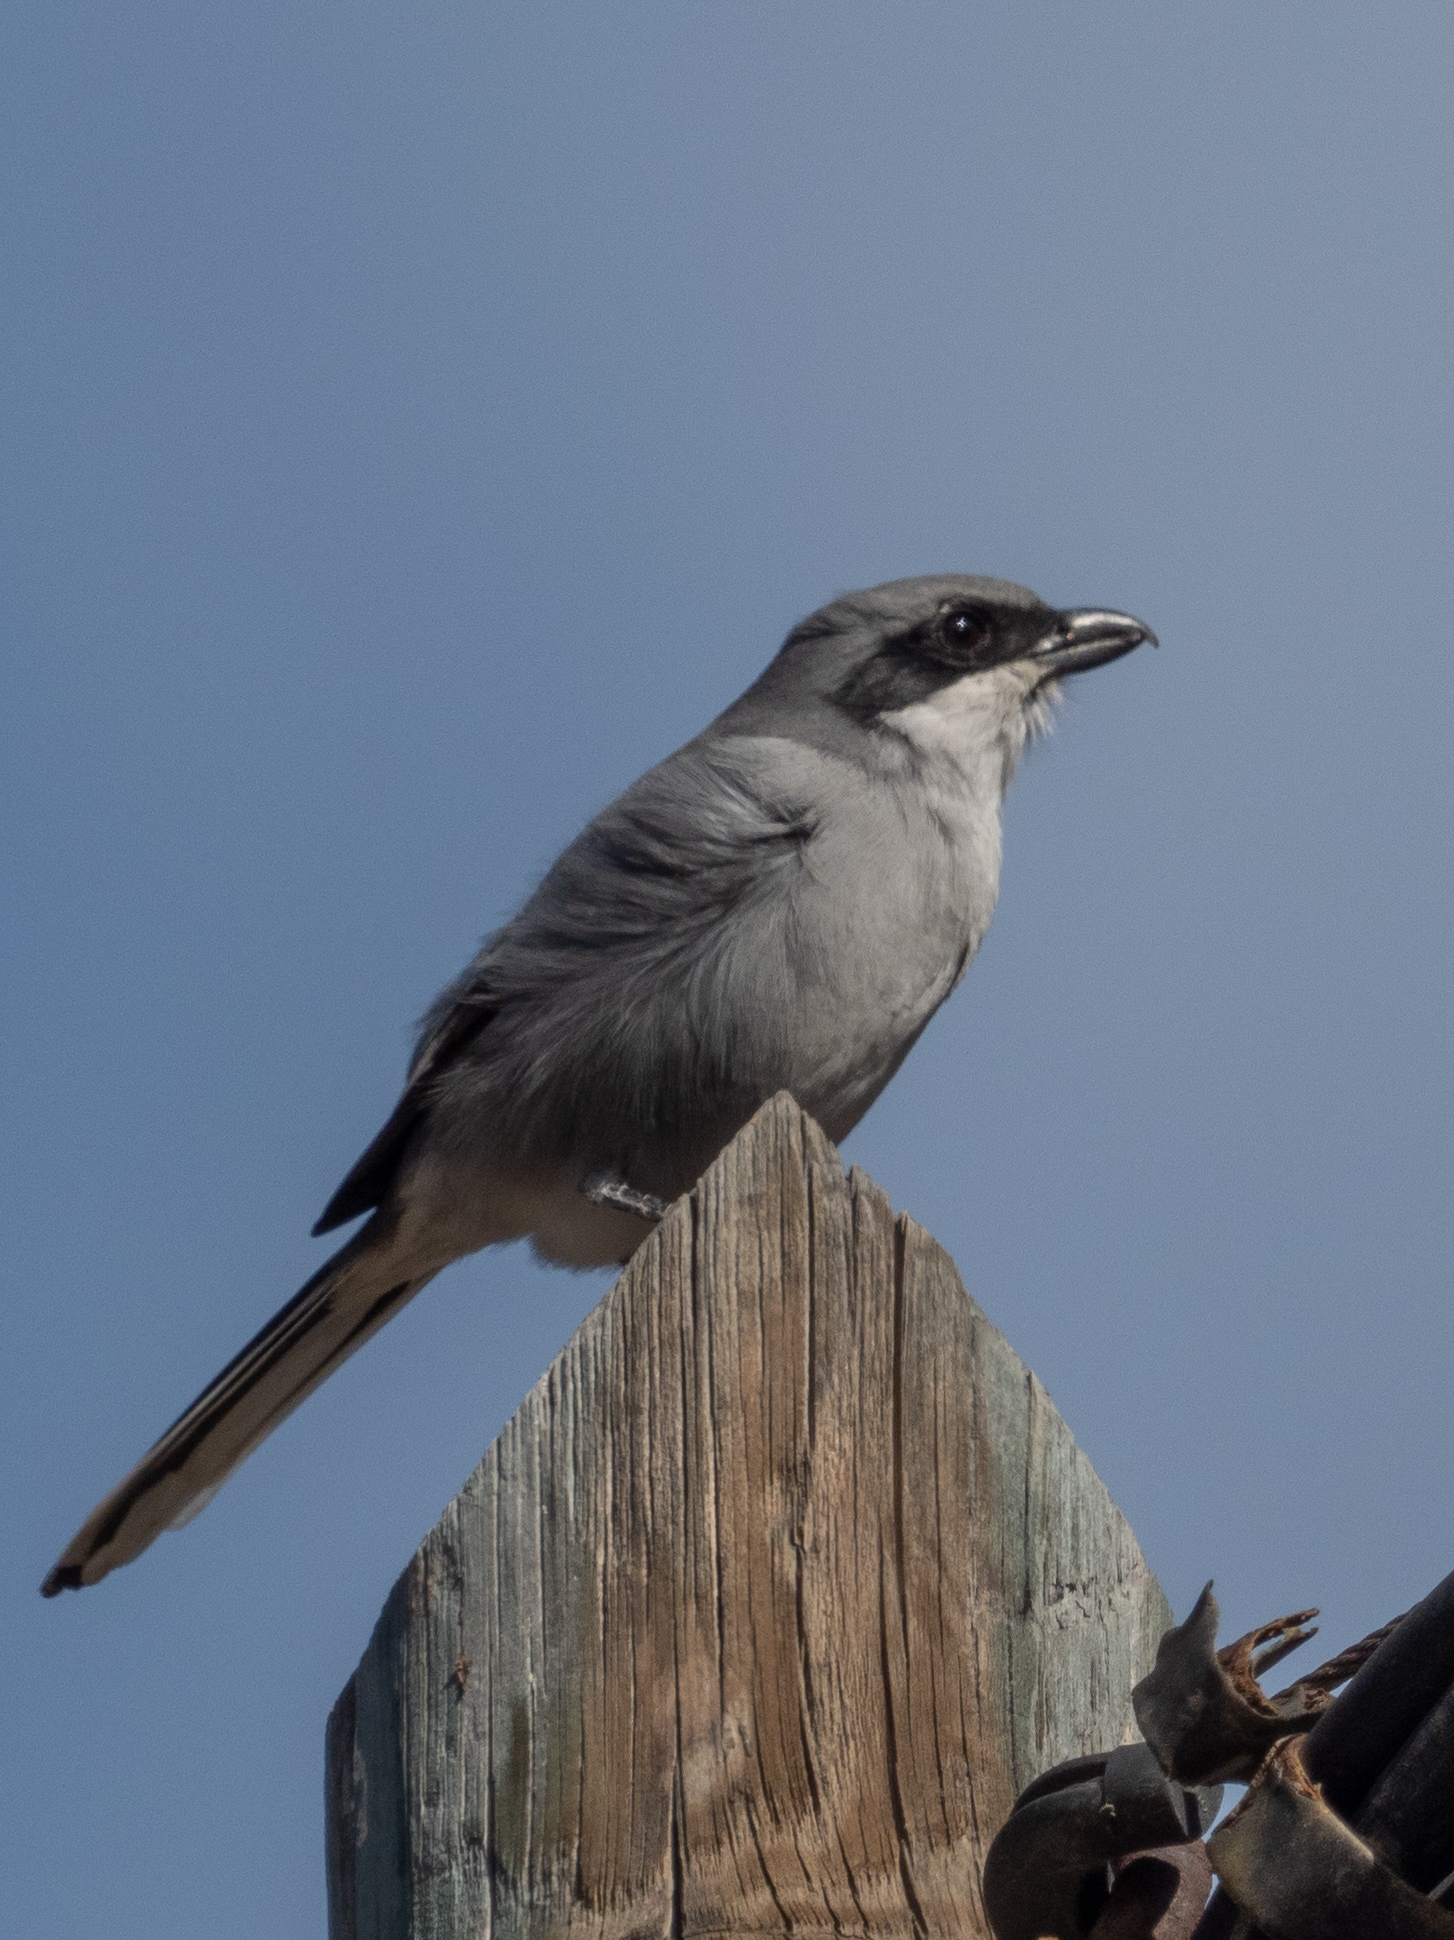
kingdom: Animalia
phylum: Chordata
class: Aves
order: Passeriformes
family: Laniidae
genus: Lanius
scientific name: Lanius excubitor
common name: Great grey shrike
